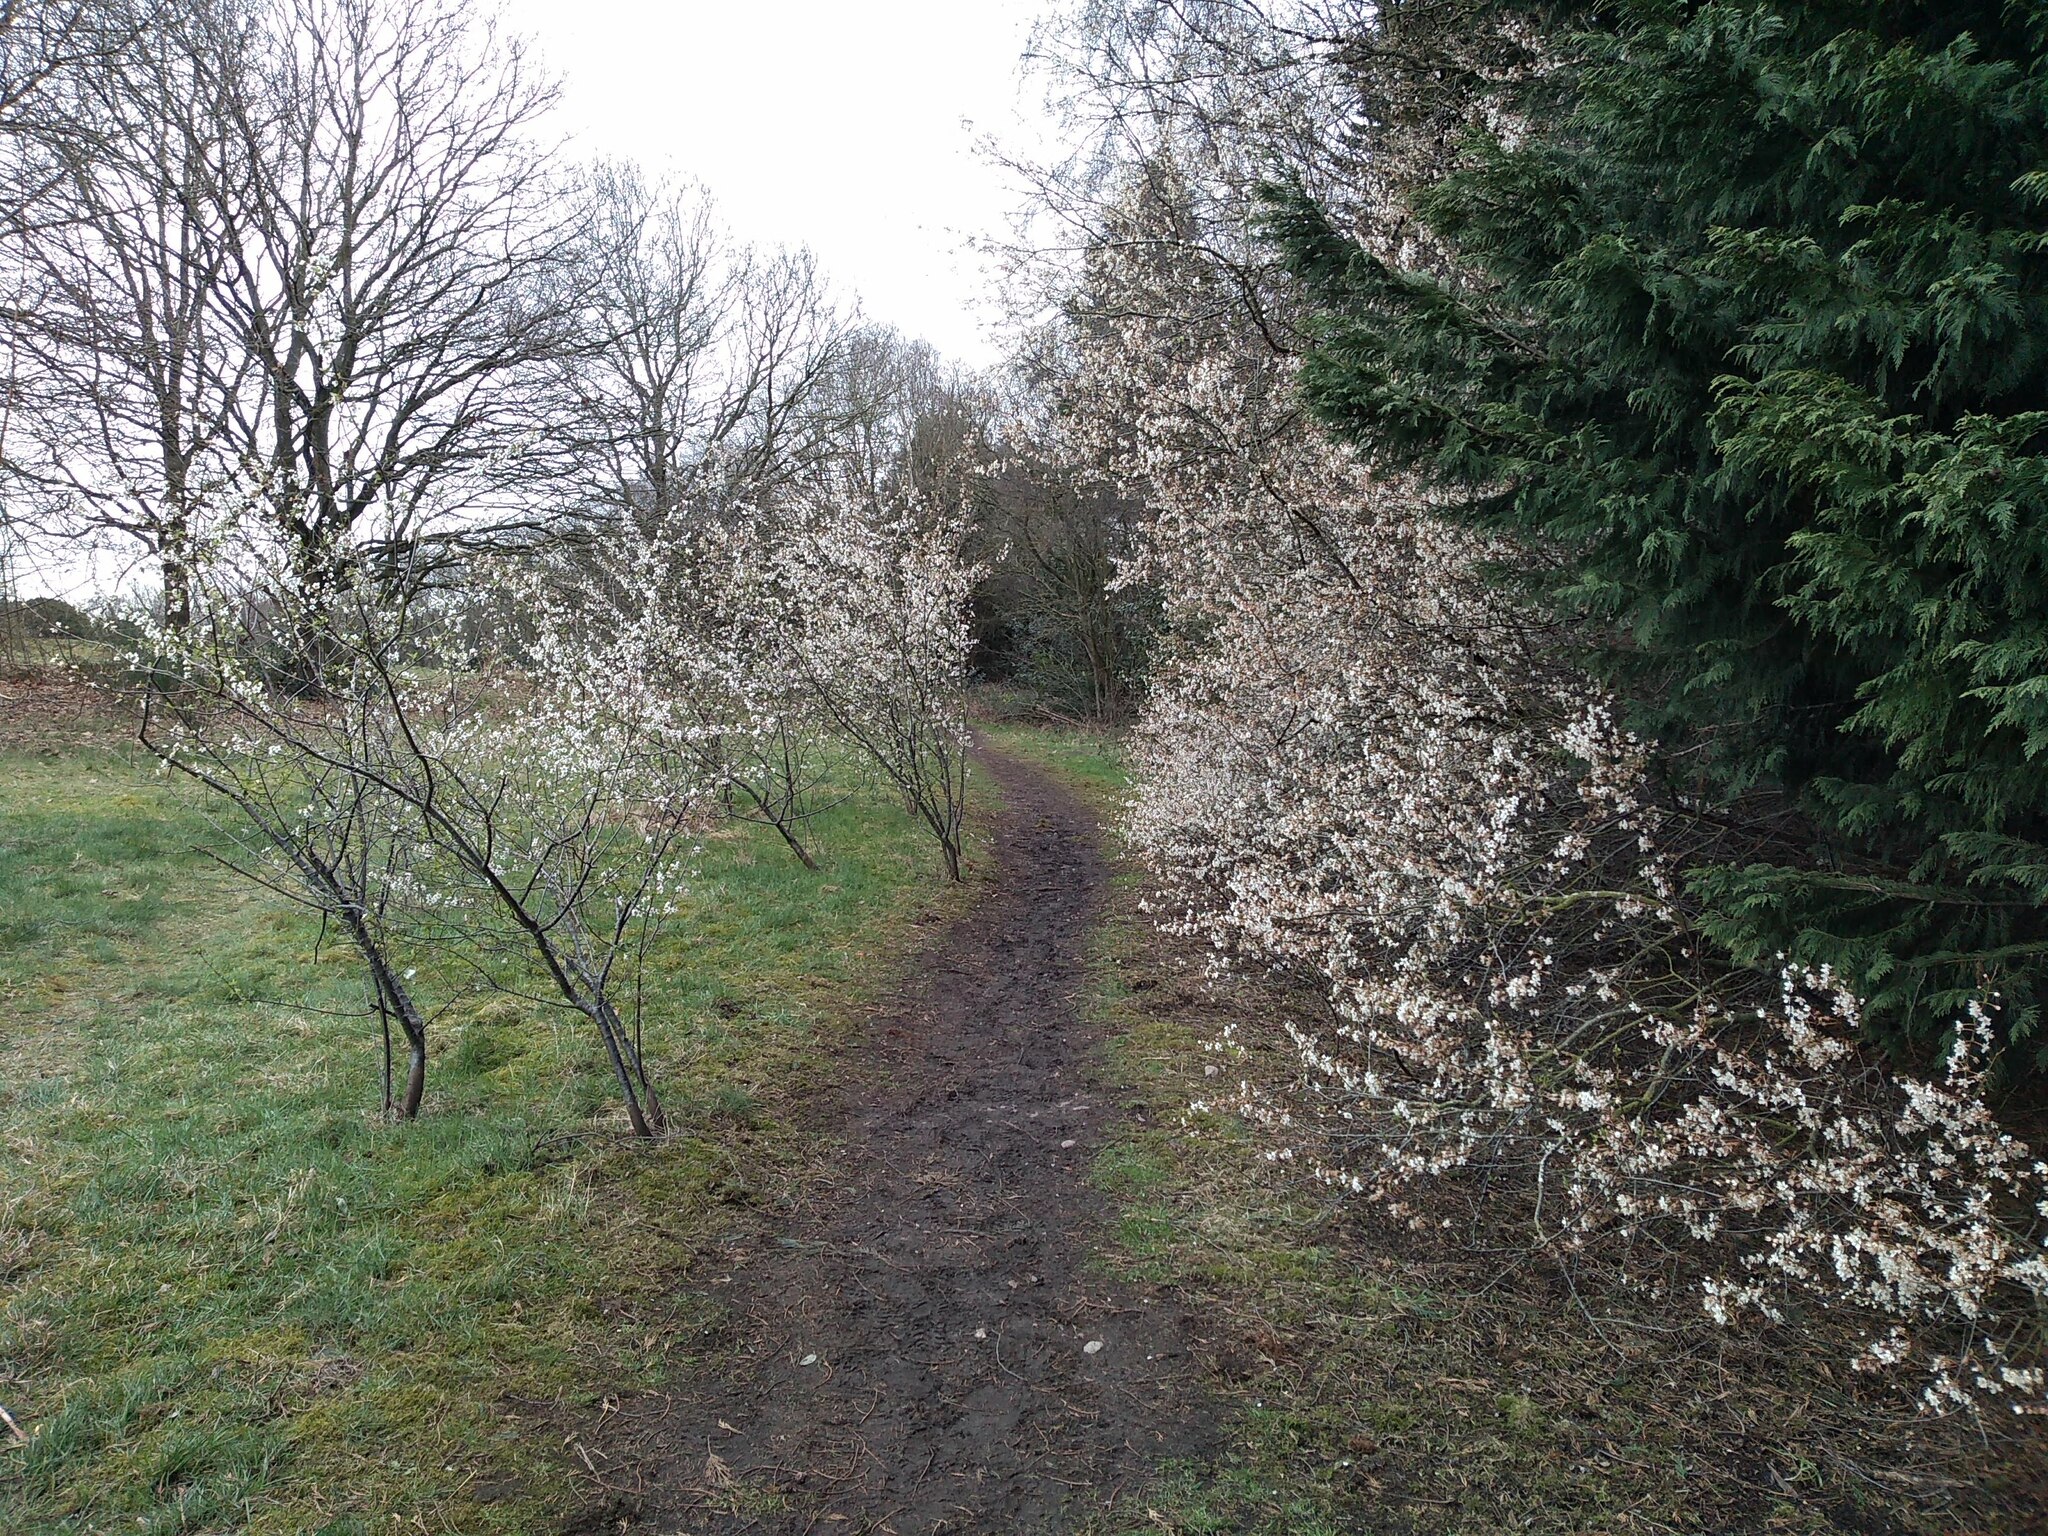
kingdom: Plantae
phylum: Tracheophyta
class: Magnoliopsida
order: Rosales
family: Rosaceae
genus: Prunus
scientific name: Prunus cerasifera
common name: Cherry plum
